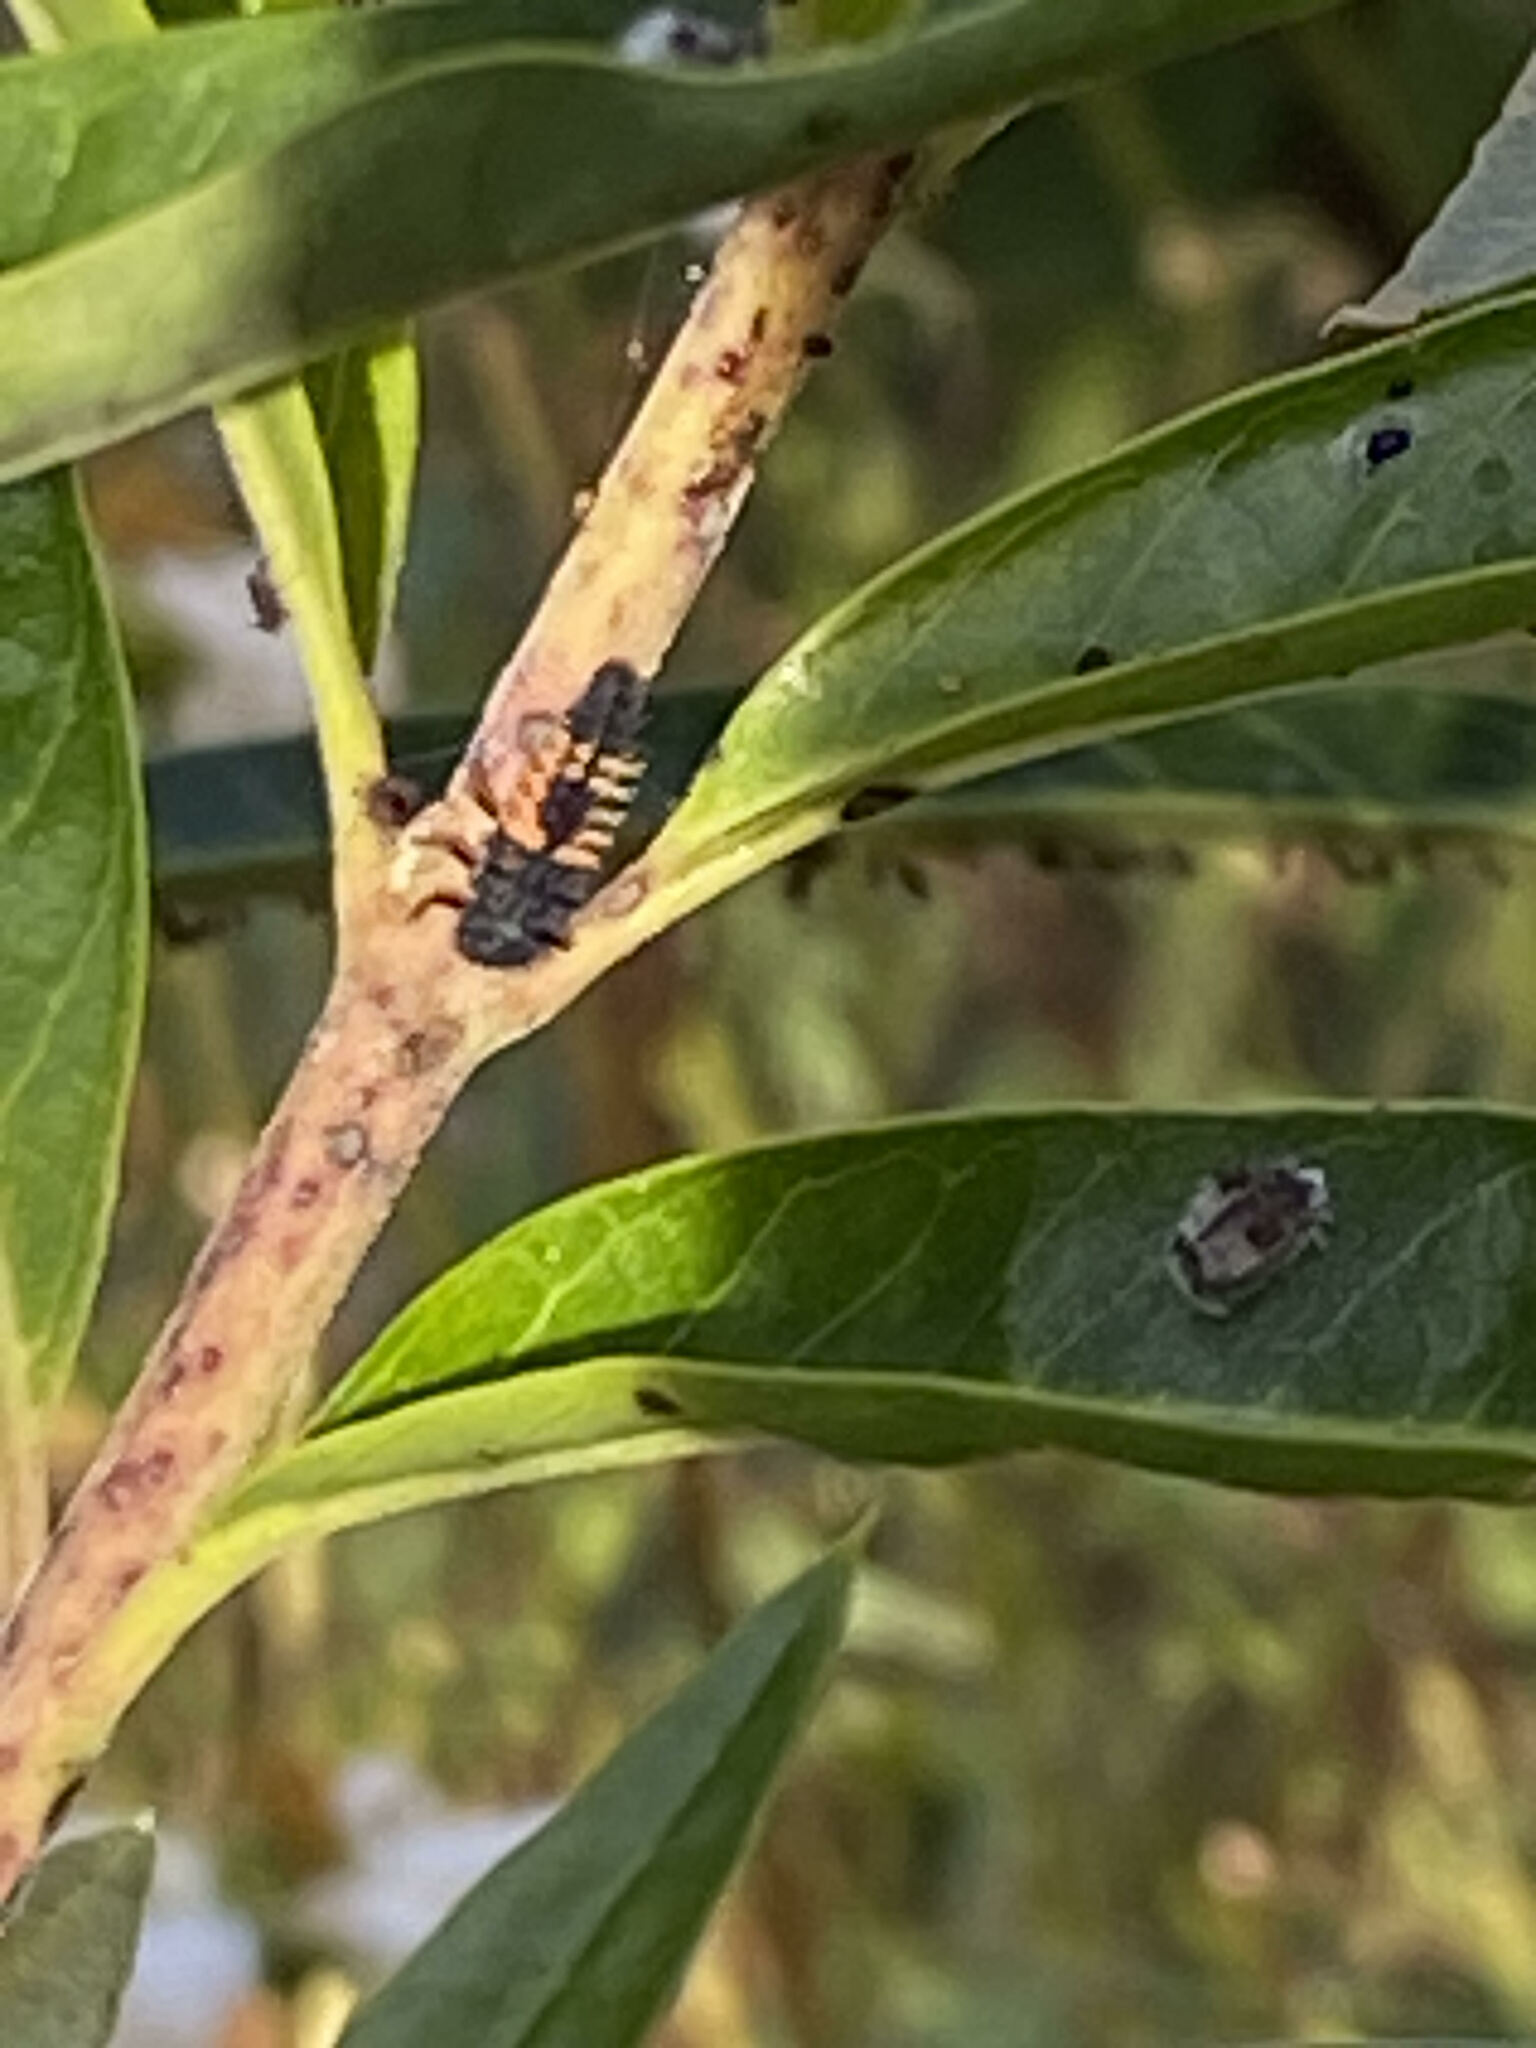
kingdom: Animalia
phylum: Arthropoda
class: Insecta
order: Coleoptera
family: Coccinellidae
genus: Harmonia
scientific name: Harmonia axyridis
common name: Harlequin ladybird
